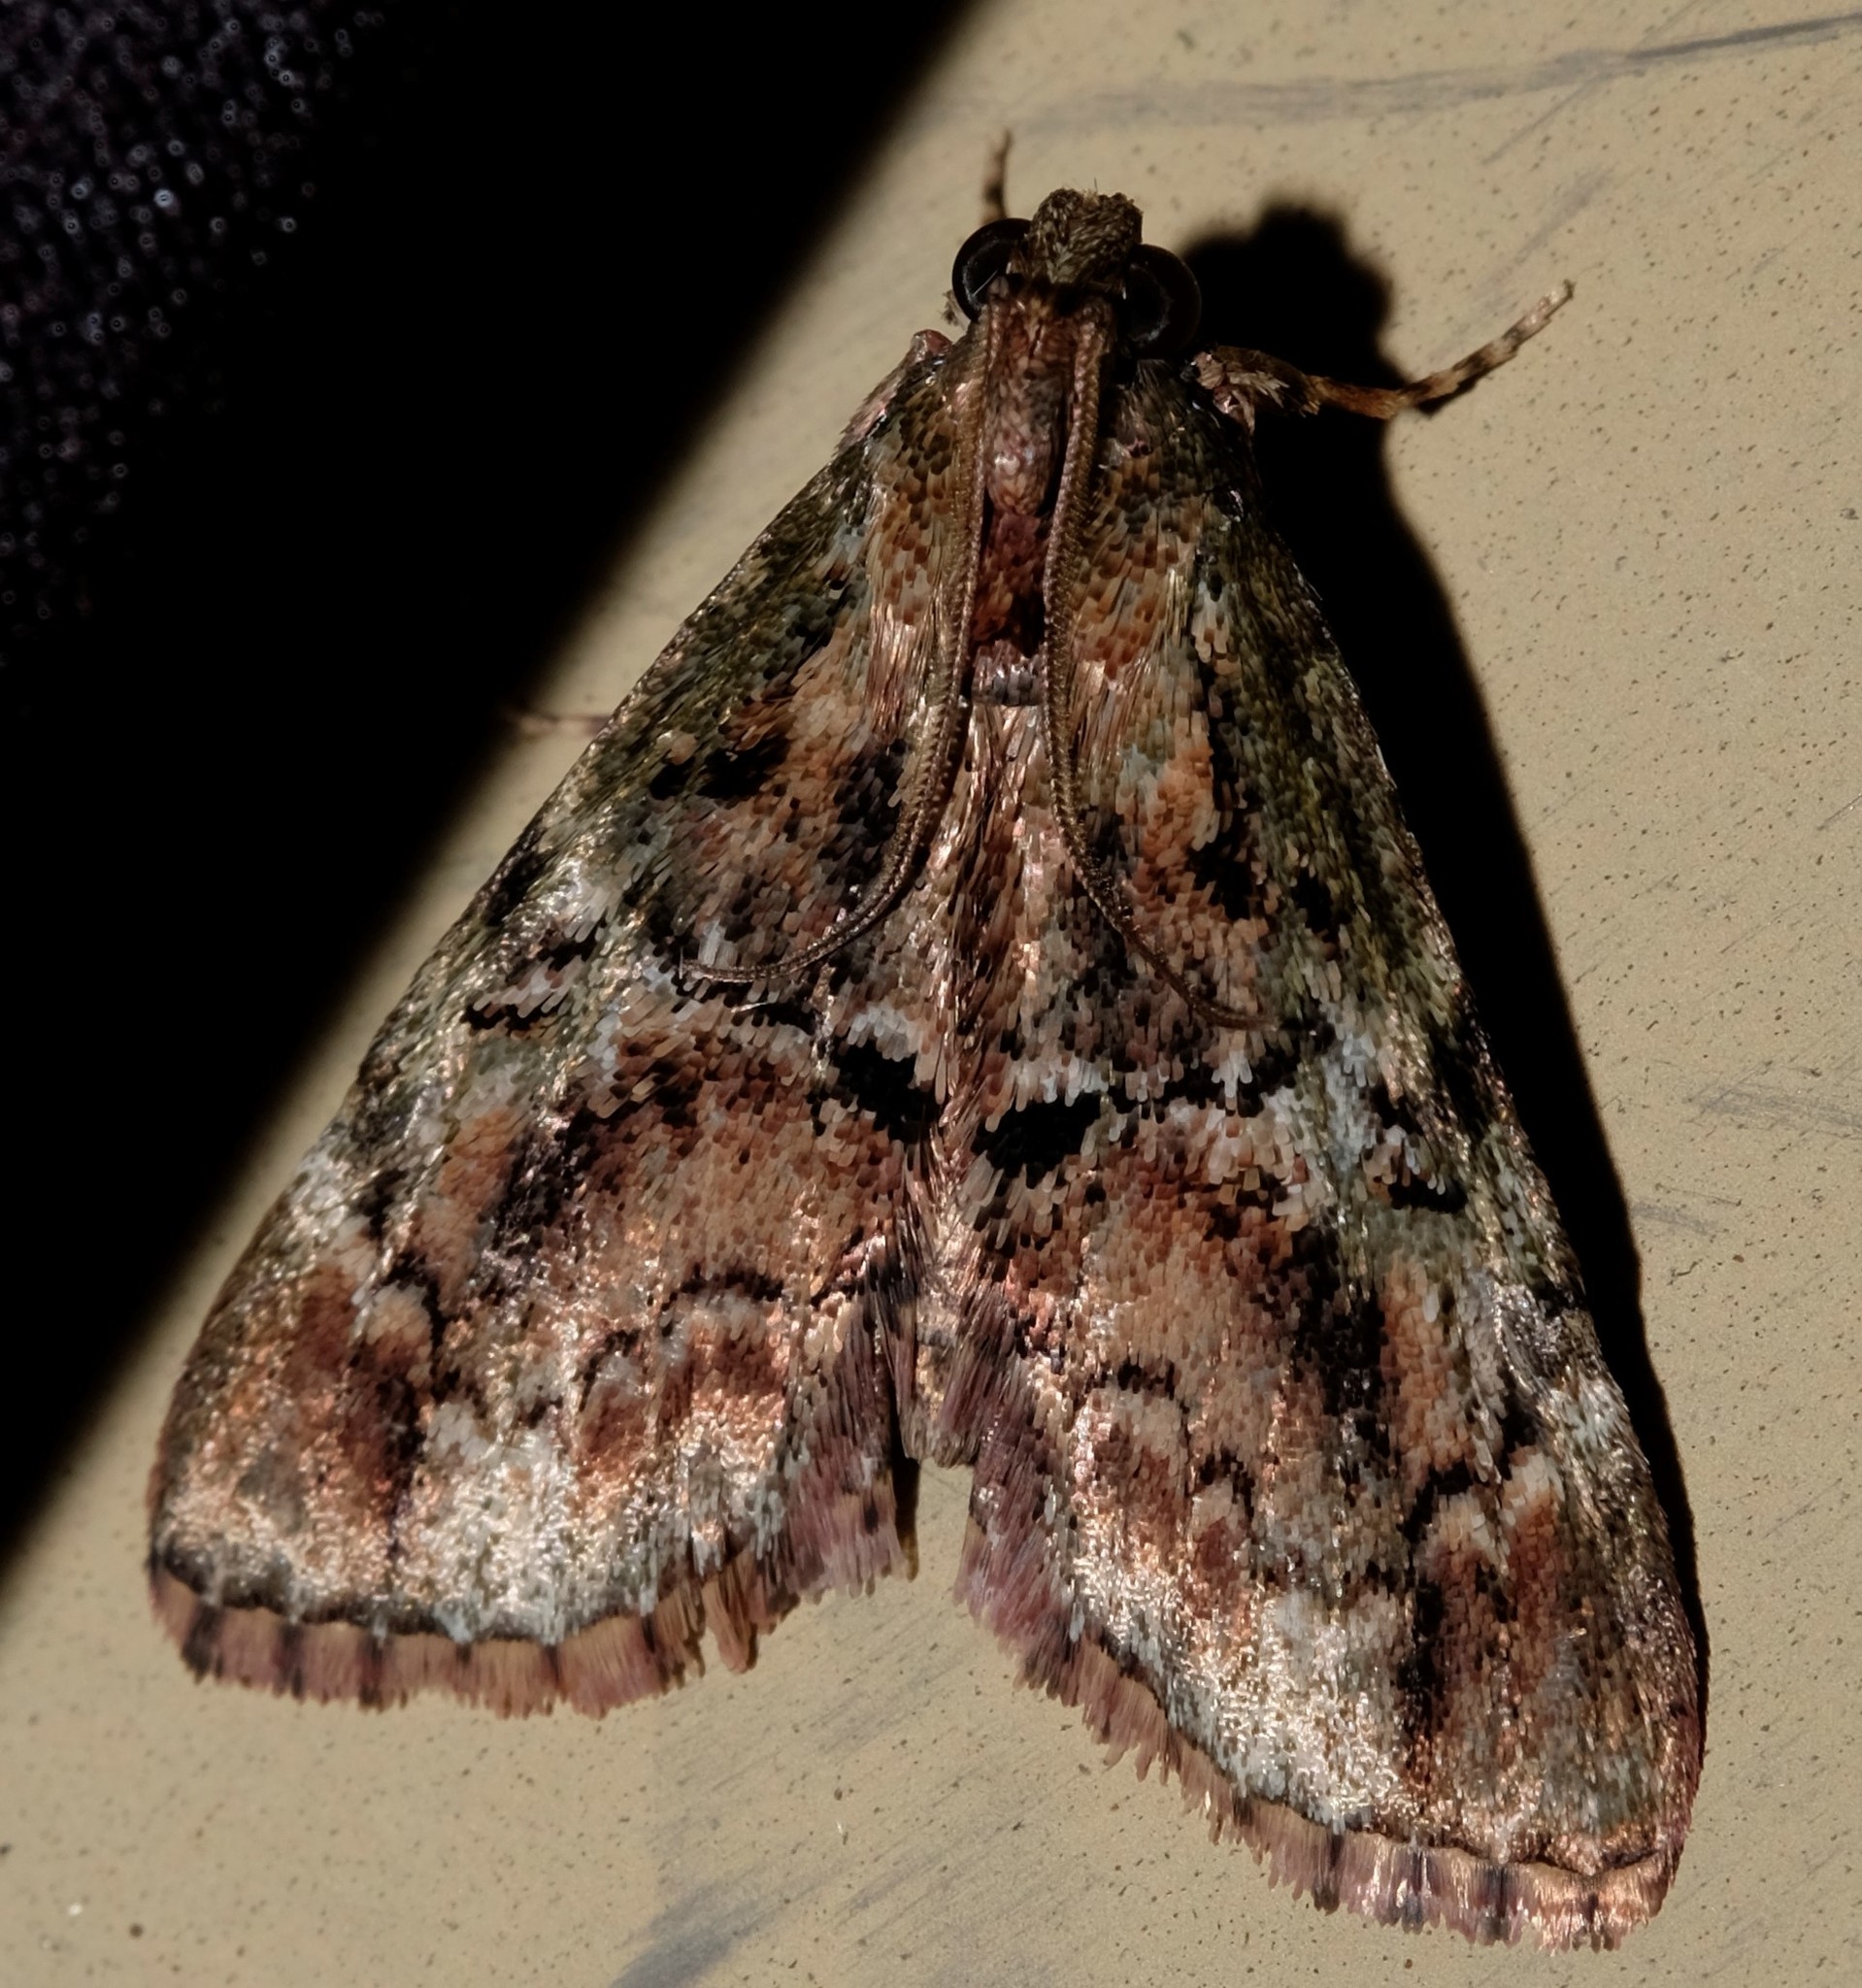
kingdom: Animalia
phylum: Arthropoda
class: Insecta
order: Lepidoptera
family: Pyralidae
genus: Orthaga
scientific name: Orthaga thyrisalis
